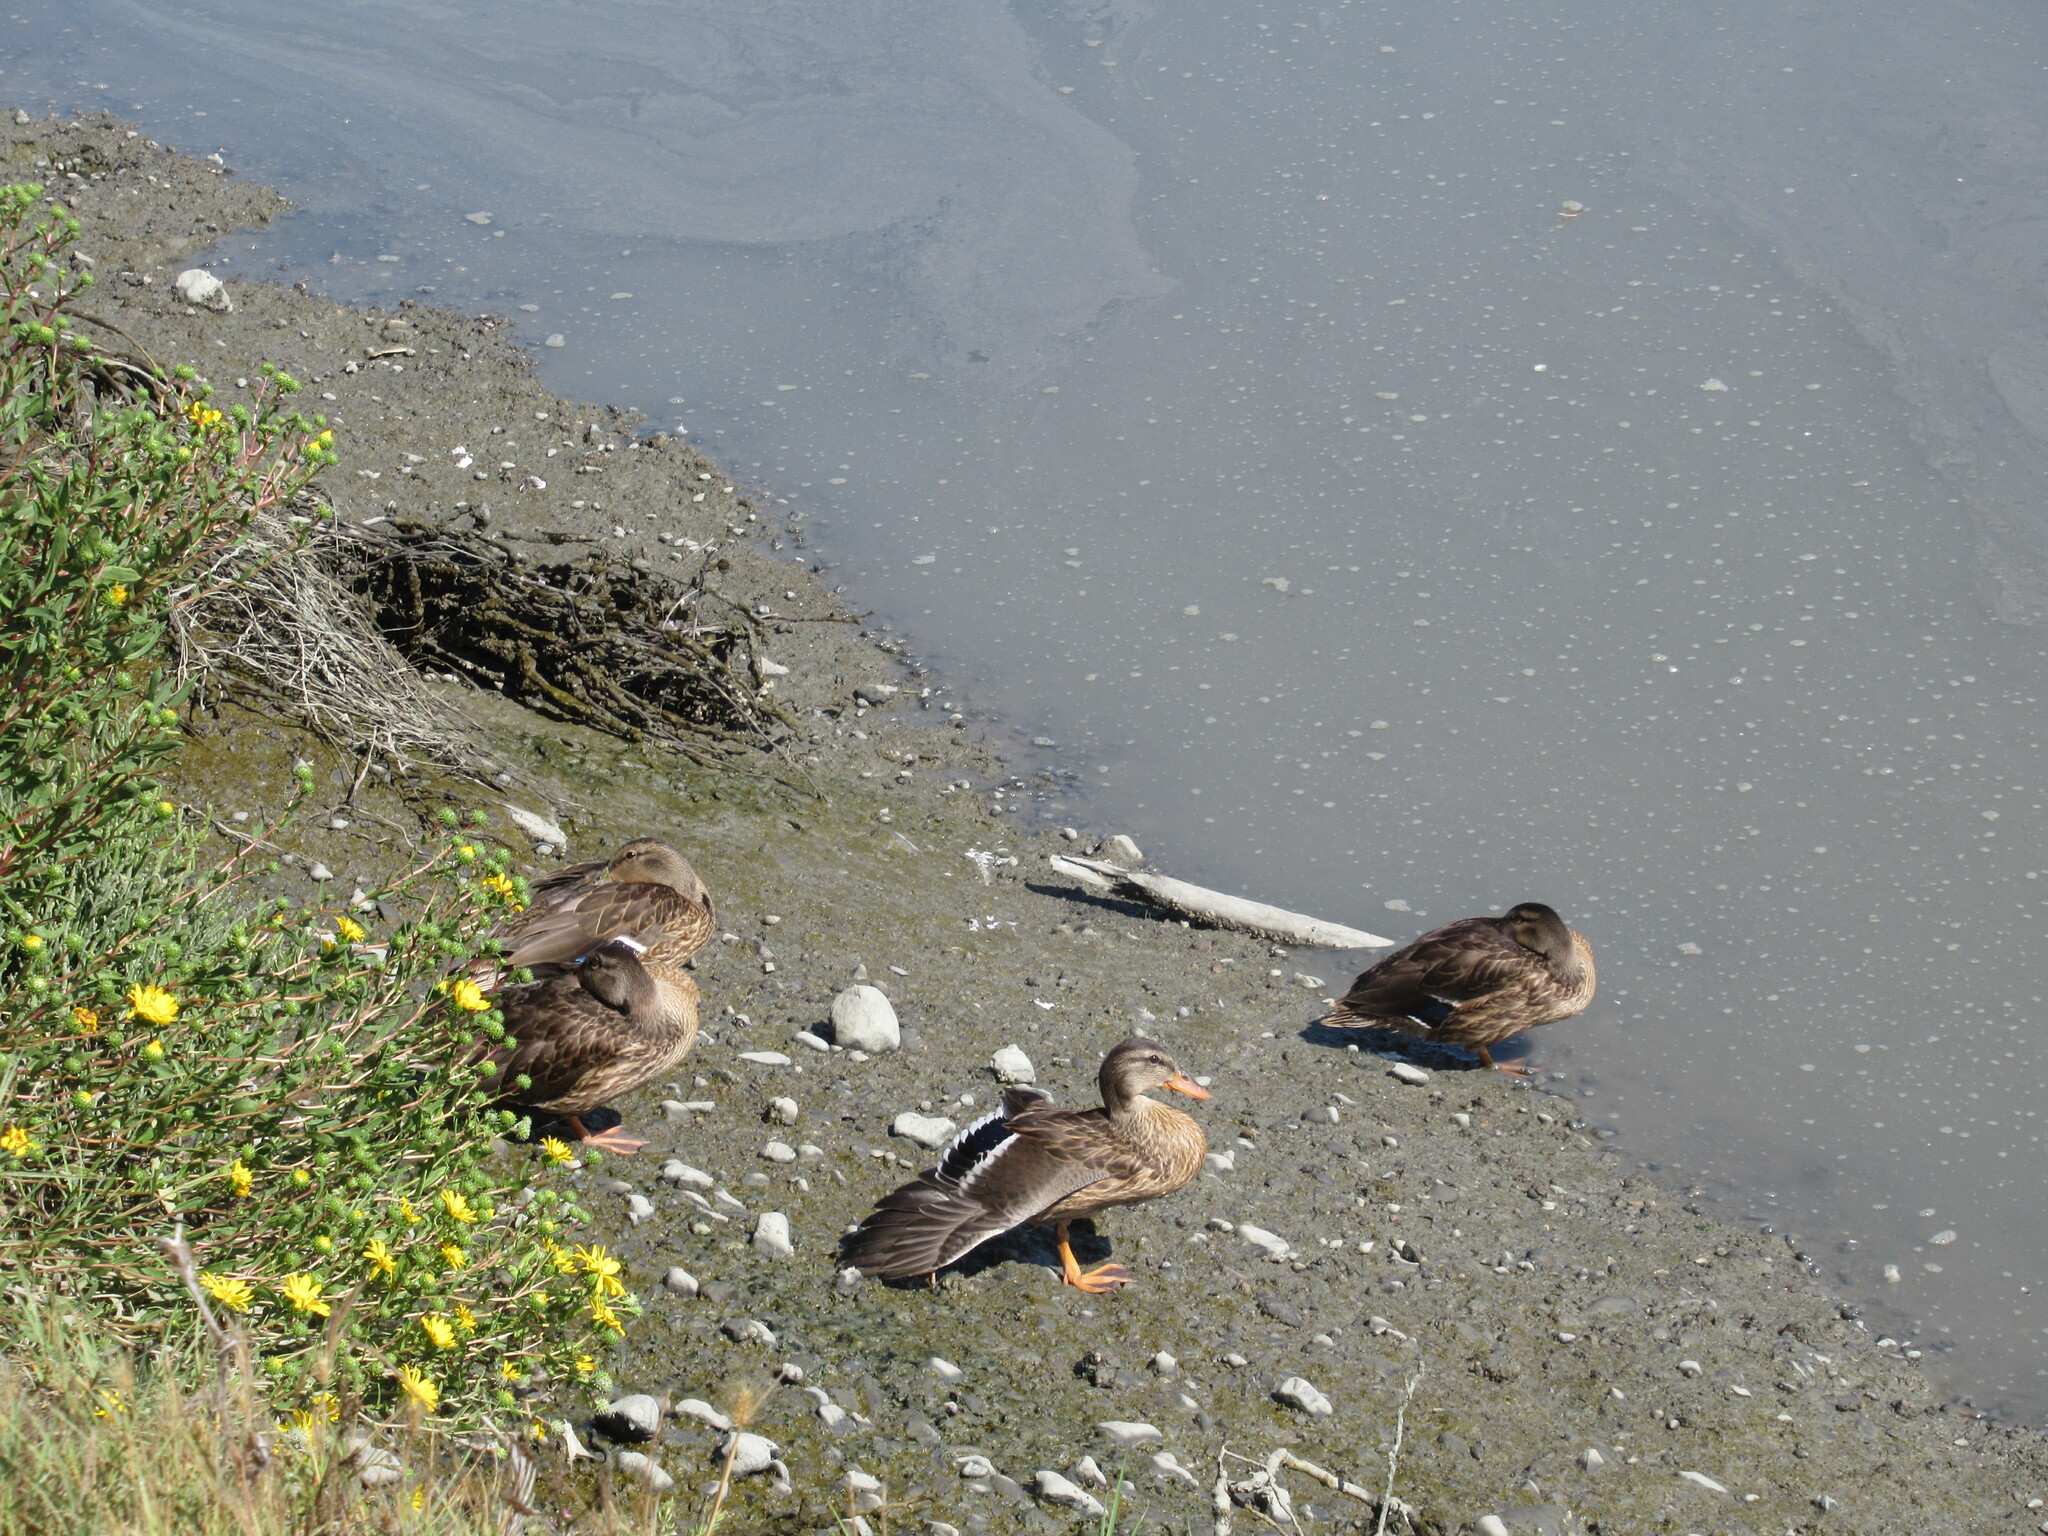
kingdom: Animalia
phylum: Chordata
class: Aves
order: Anseriformes
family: Anatidae
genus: Anas
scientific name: Anas platyrhynchos
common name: Mallard
